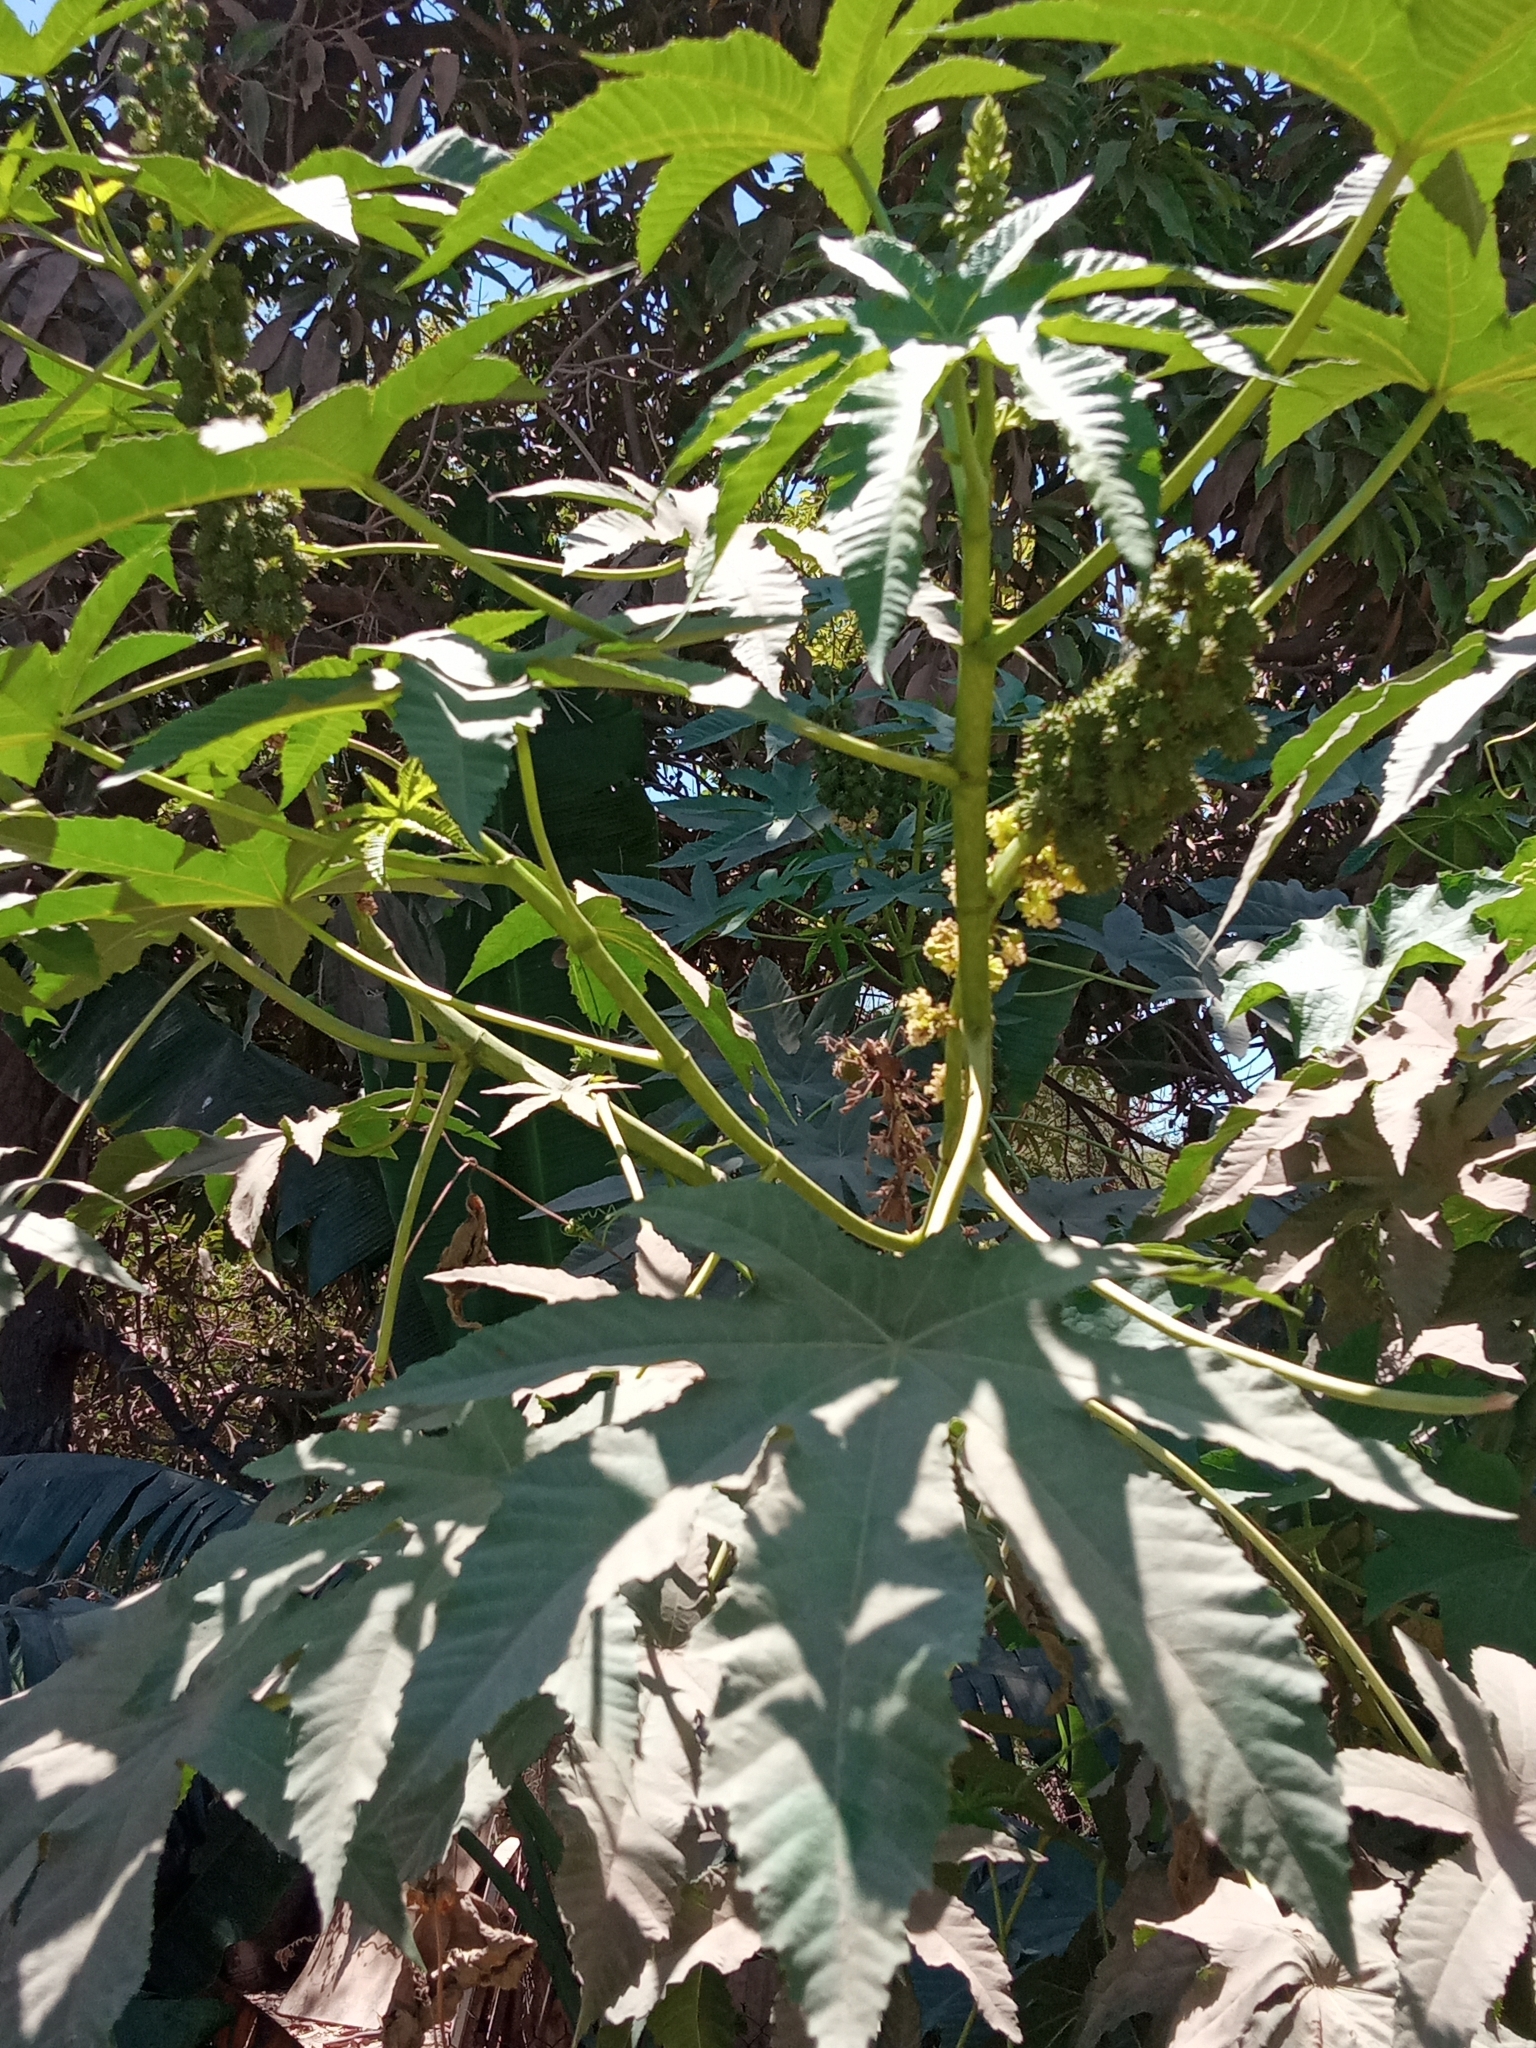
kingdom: Plantae
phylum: Tracheophyta
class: Magnoliopsida
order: Malpighiales
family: Euphorbiaceae
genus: Ricinus
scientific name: Ricinus communis
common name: Castor-oil-plant
